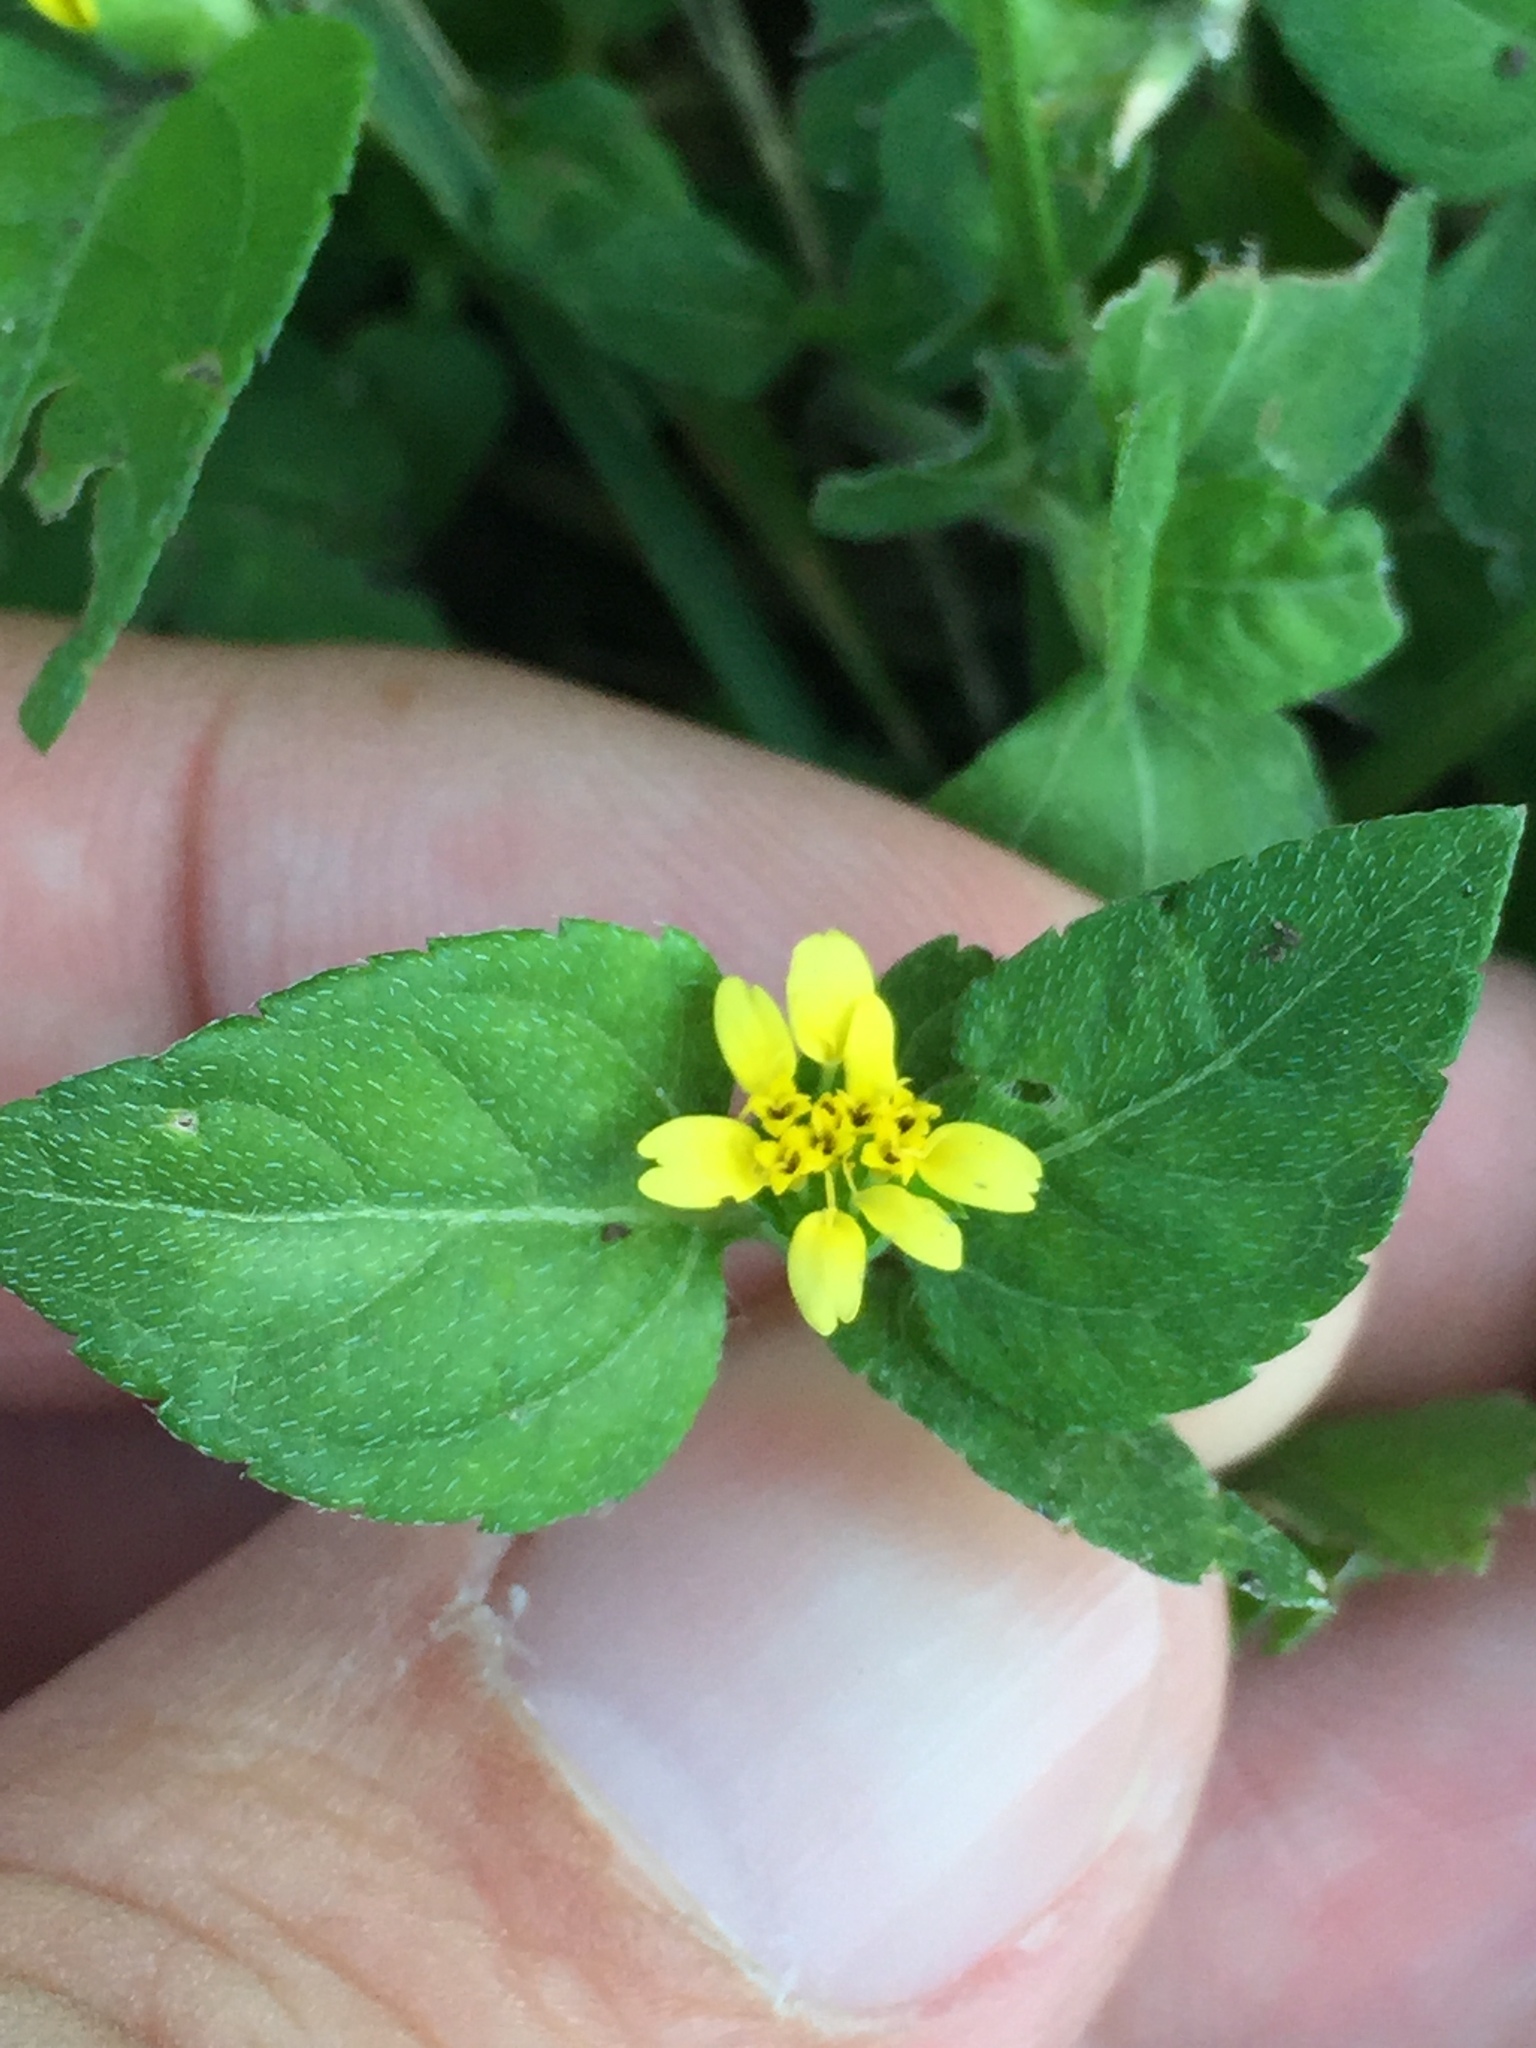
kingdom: Plantae
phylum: Tracheophyta
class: Magnoliopsida
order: Asterales
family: Asteraceae
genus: Calyptocarpus
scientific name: Calyptocarpus vialis
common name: Straggler daisy
